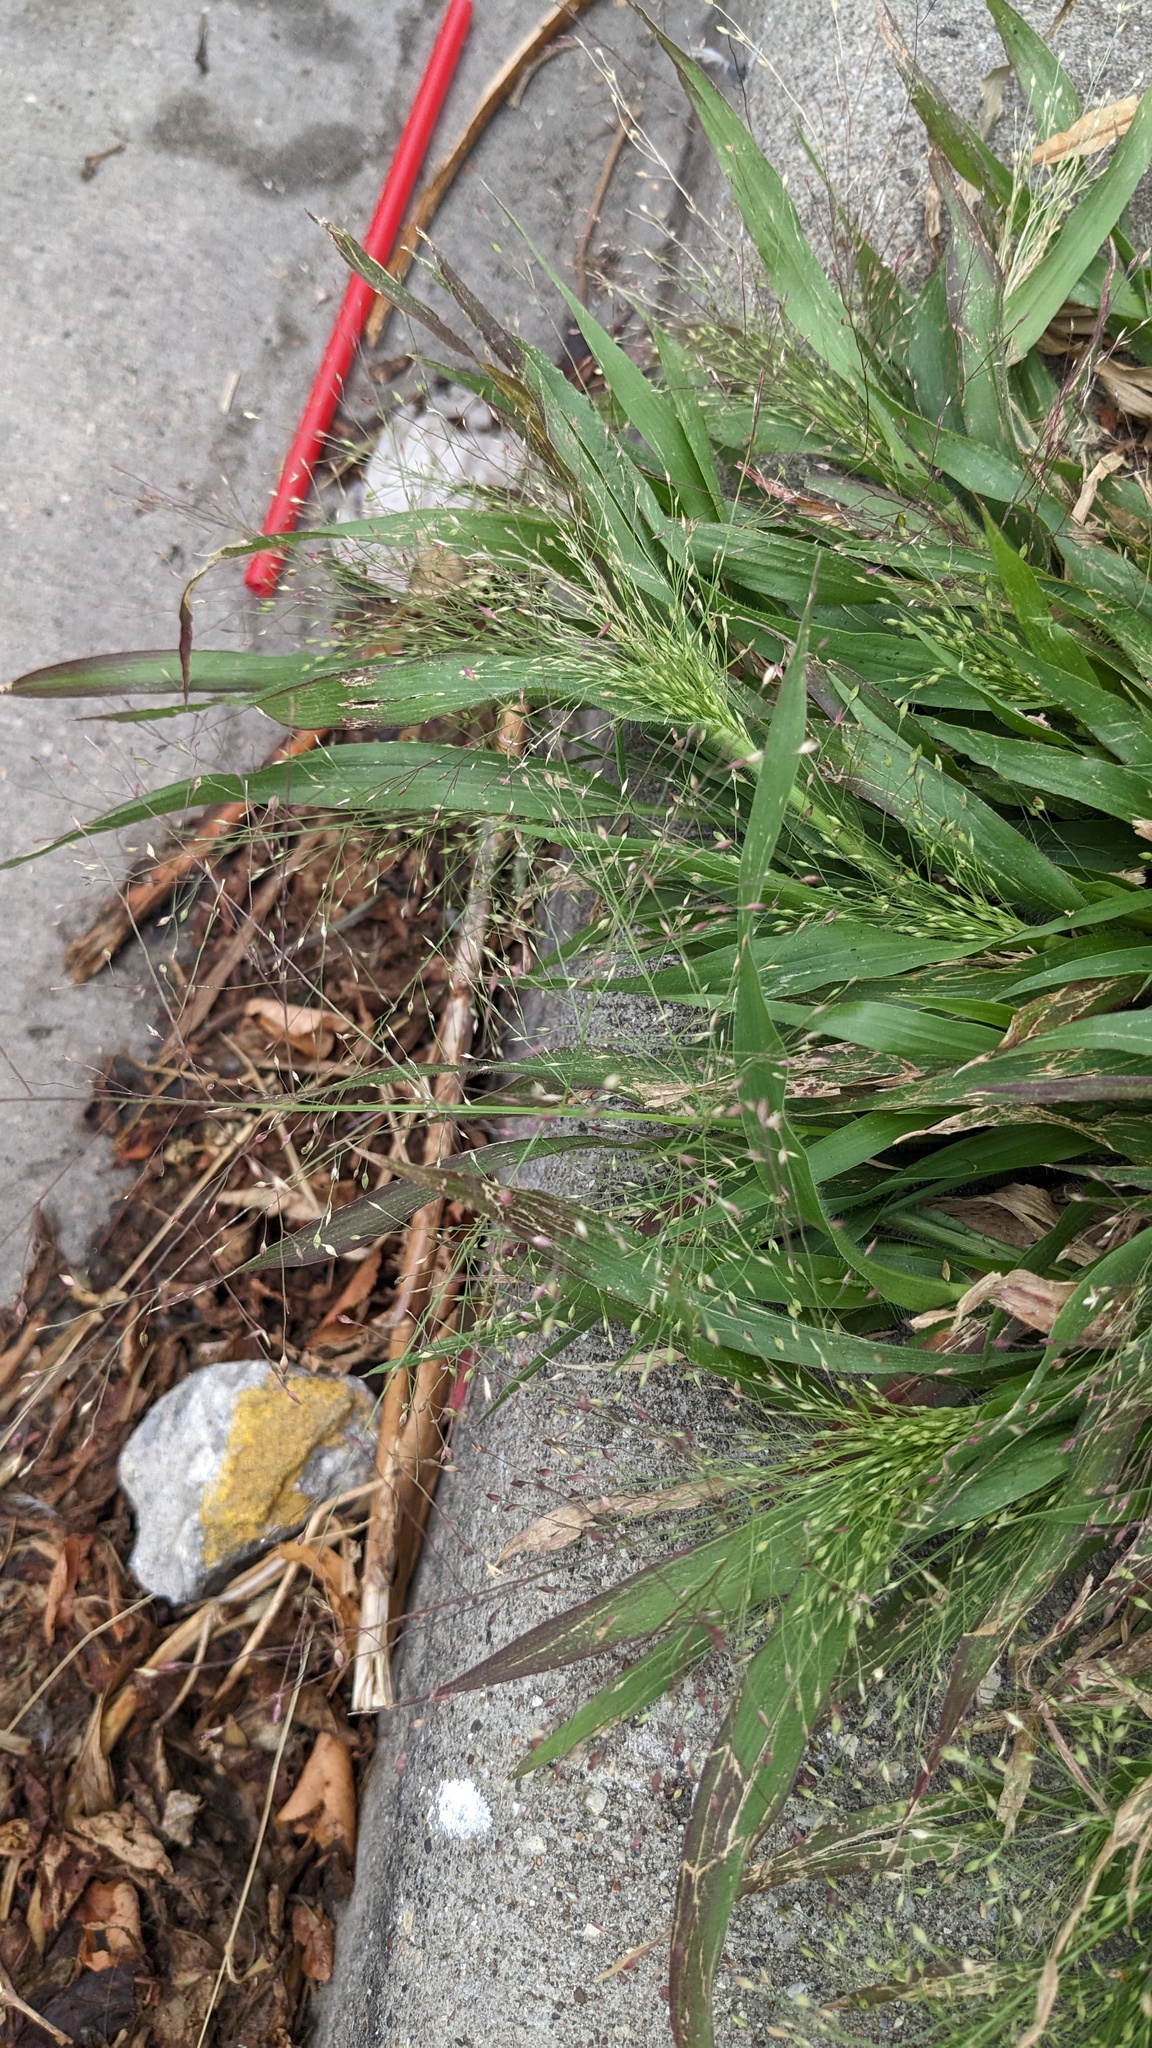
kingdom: Plantae
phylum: Tracheophyta
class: Liliopsida
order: Poales
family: Poaceae
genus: Panicum
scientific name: Panicum capillare
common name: Witch-grass
